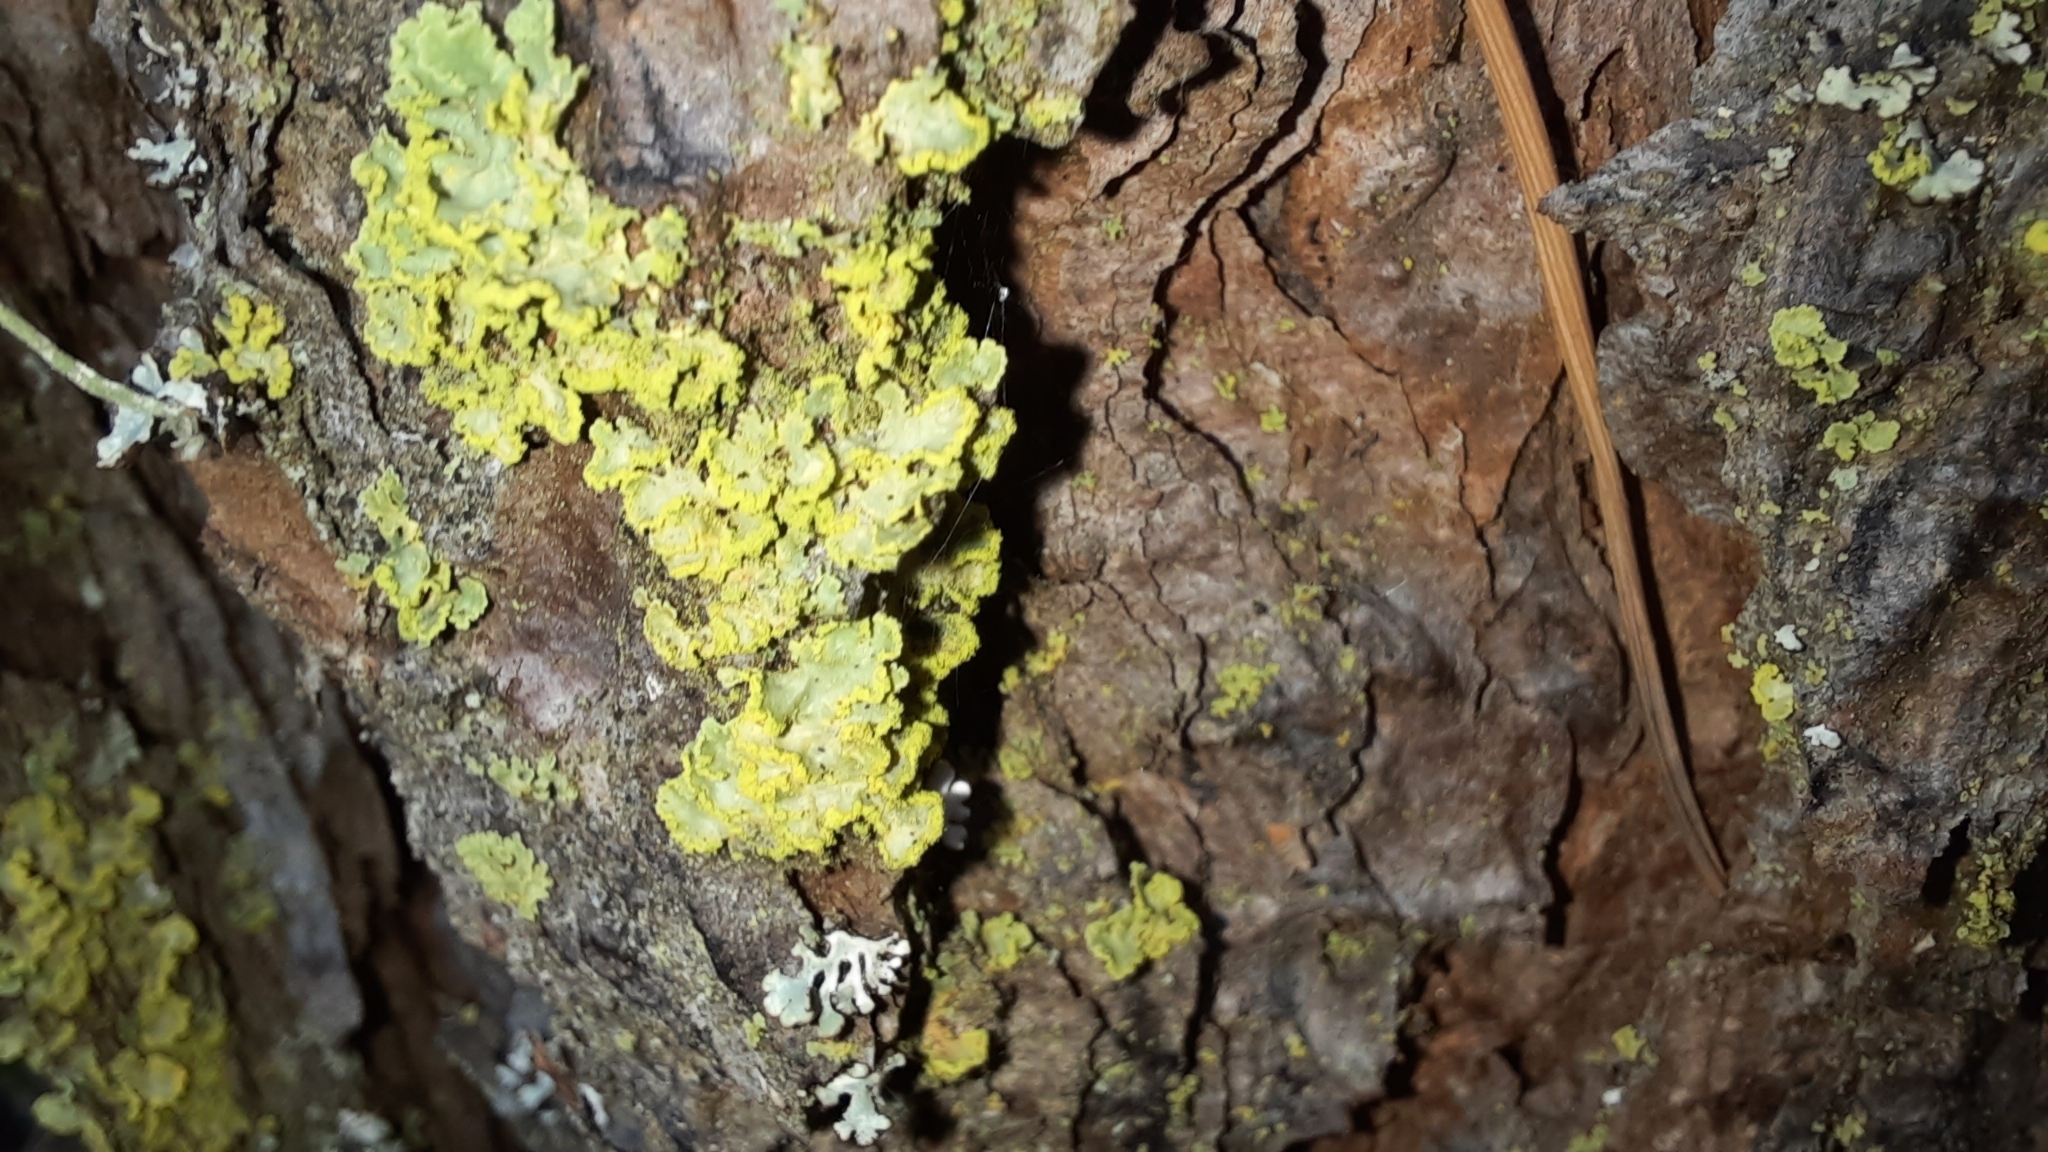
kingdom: Fungi
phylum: Ascomycota
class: Lecanoromycetes
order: Lecanorales
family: Parmeliaceae
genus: Vulpicida
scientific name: Vulpicida pinastri
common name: Powdered sunshine lichen
